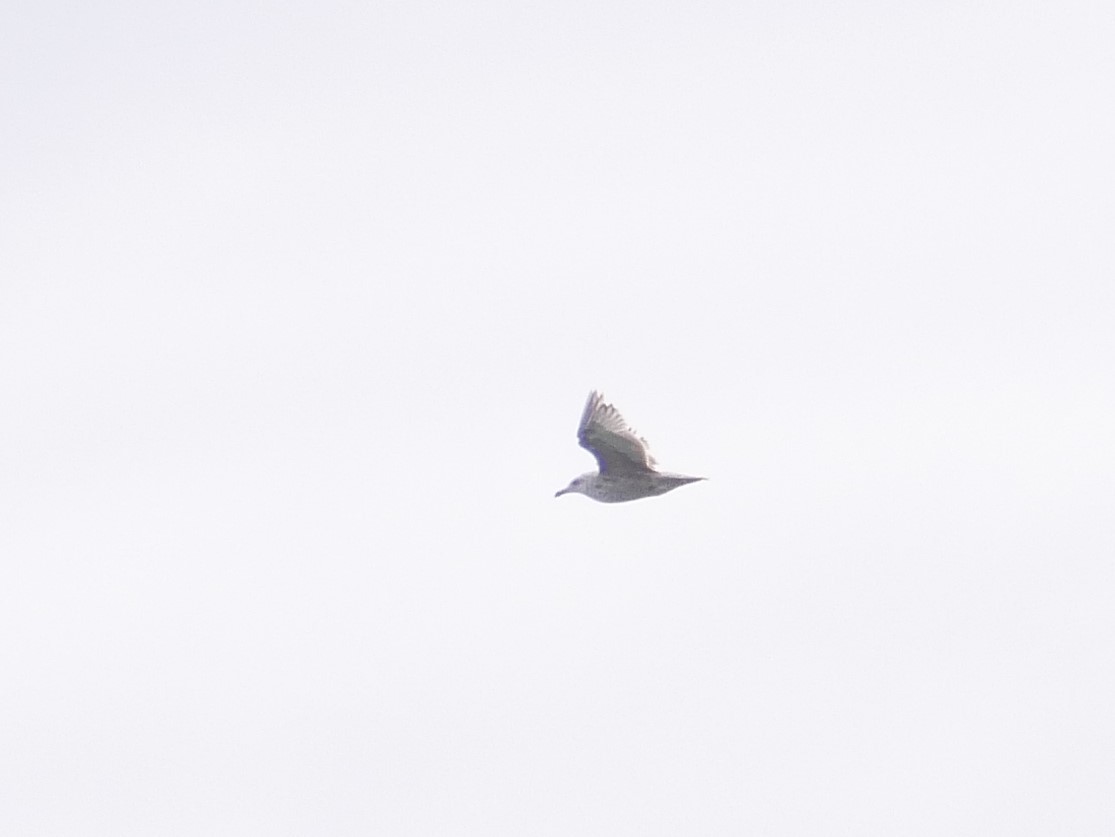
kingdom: Animalia
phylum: Chordata
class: Aves
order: Charadriiformes
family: Laridae
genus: Larus
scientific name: Larus argentatus
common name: Herring gull
